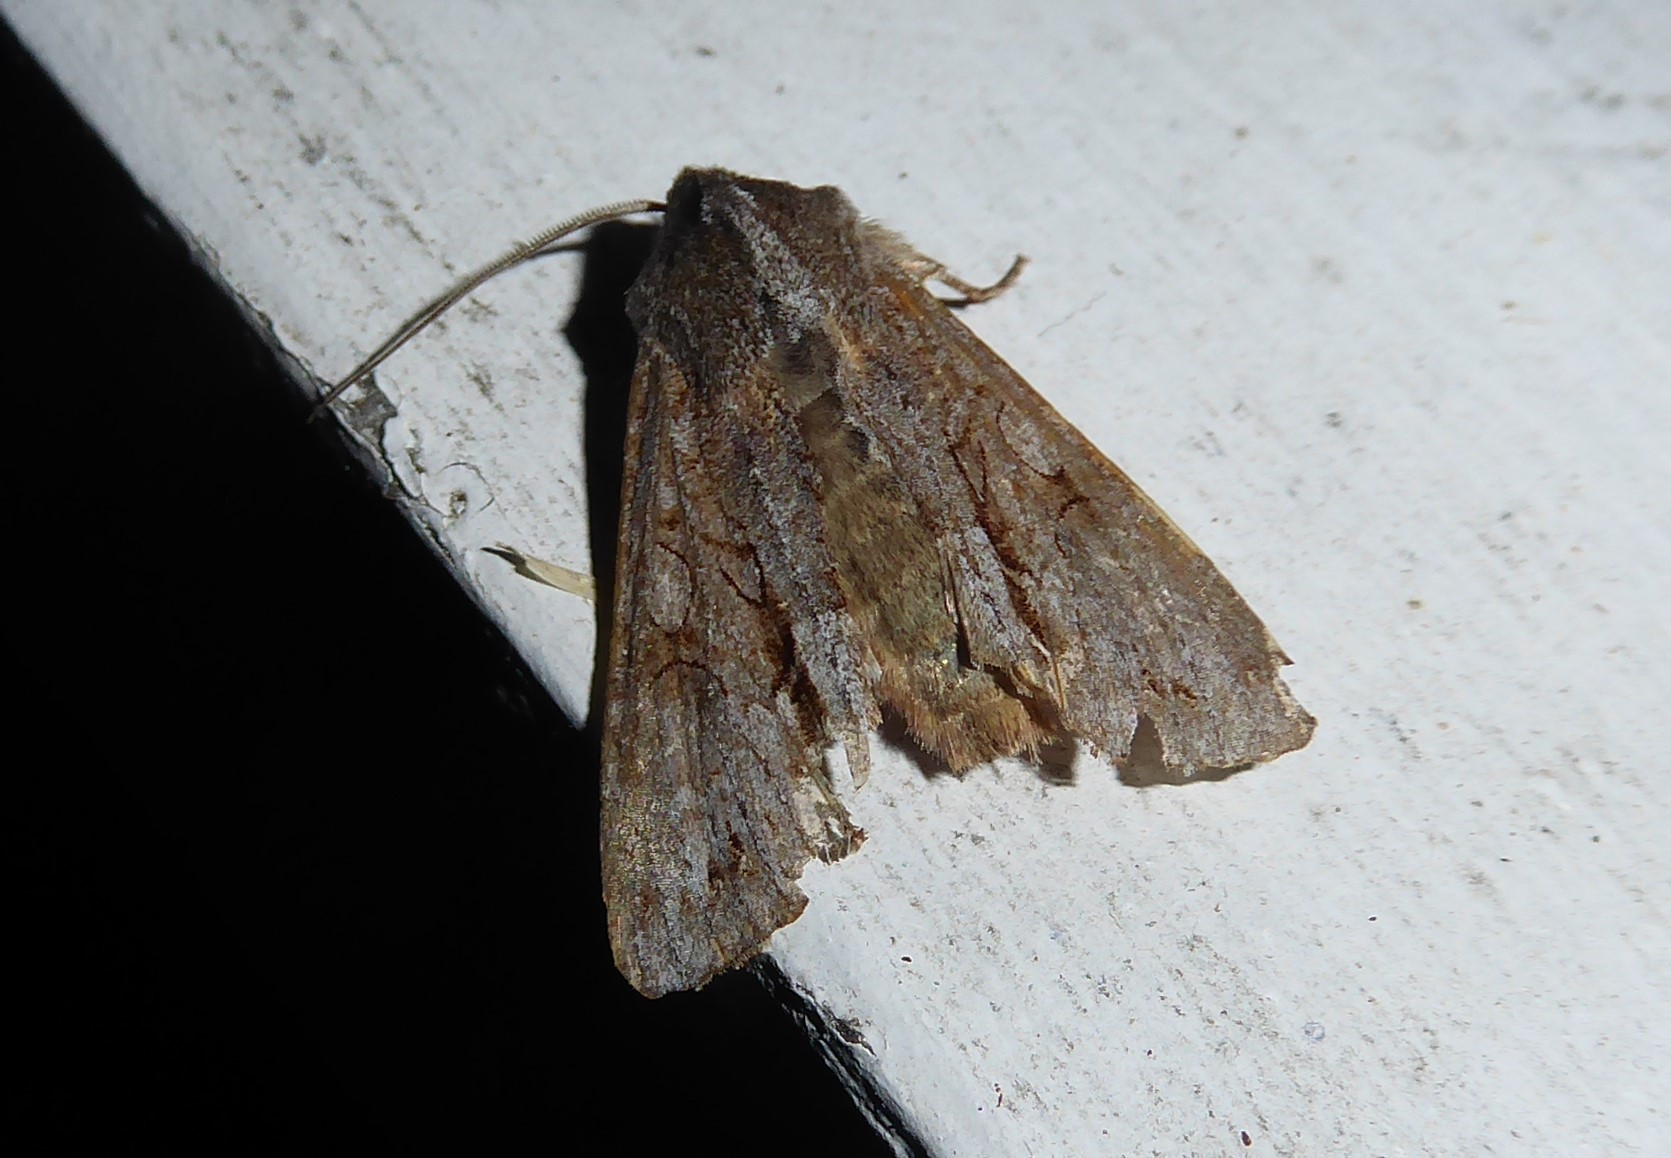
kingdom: Animalia
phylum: Arthropoda
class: Insecta
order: Lepidoptera
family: Noctuidae
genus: Ichneutica
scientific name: Ichneutica
